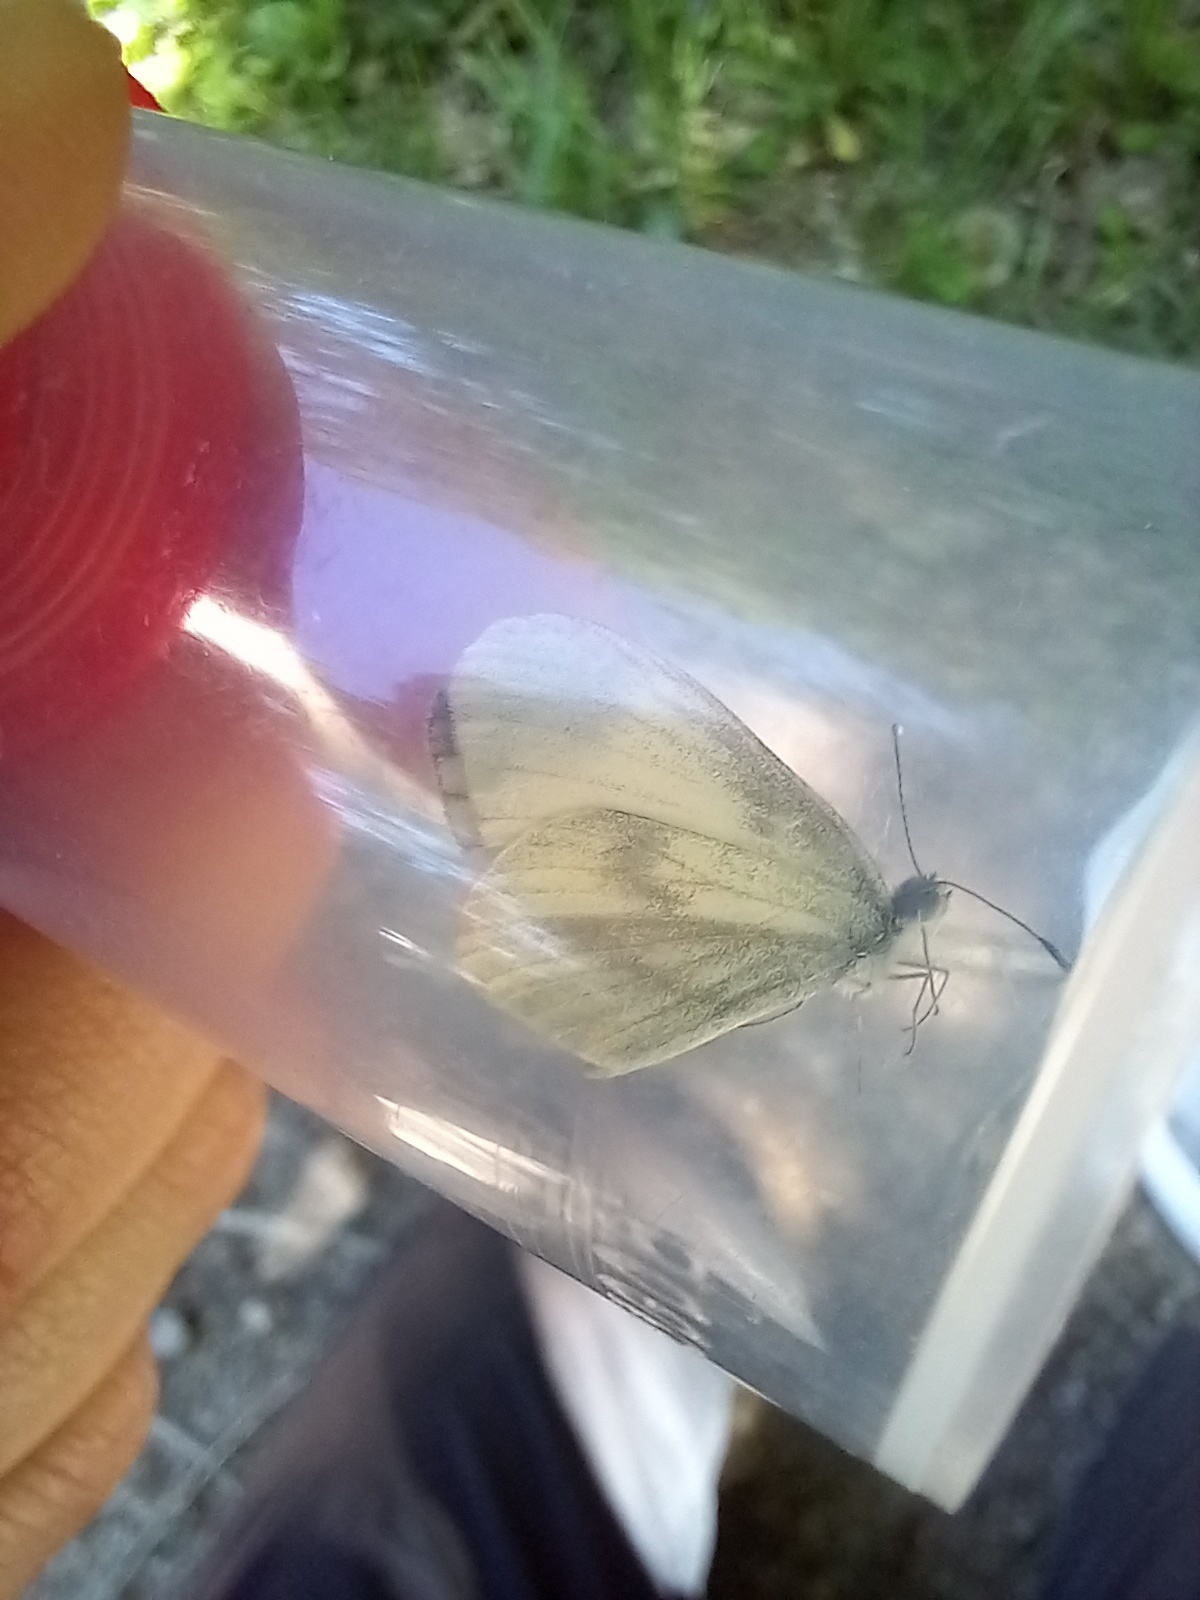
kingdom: Animalia
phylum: Arthropoda
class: Insecta
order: Lepidoptera
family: Pieridae
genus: Leptidea
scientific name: Leptidea sinapis
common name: Wood white
